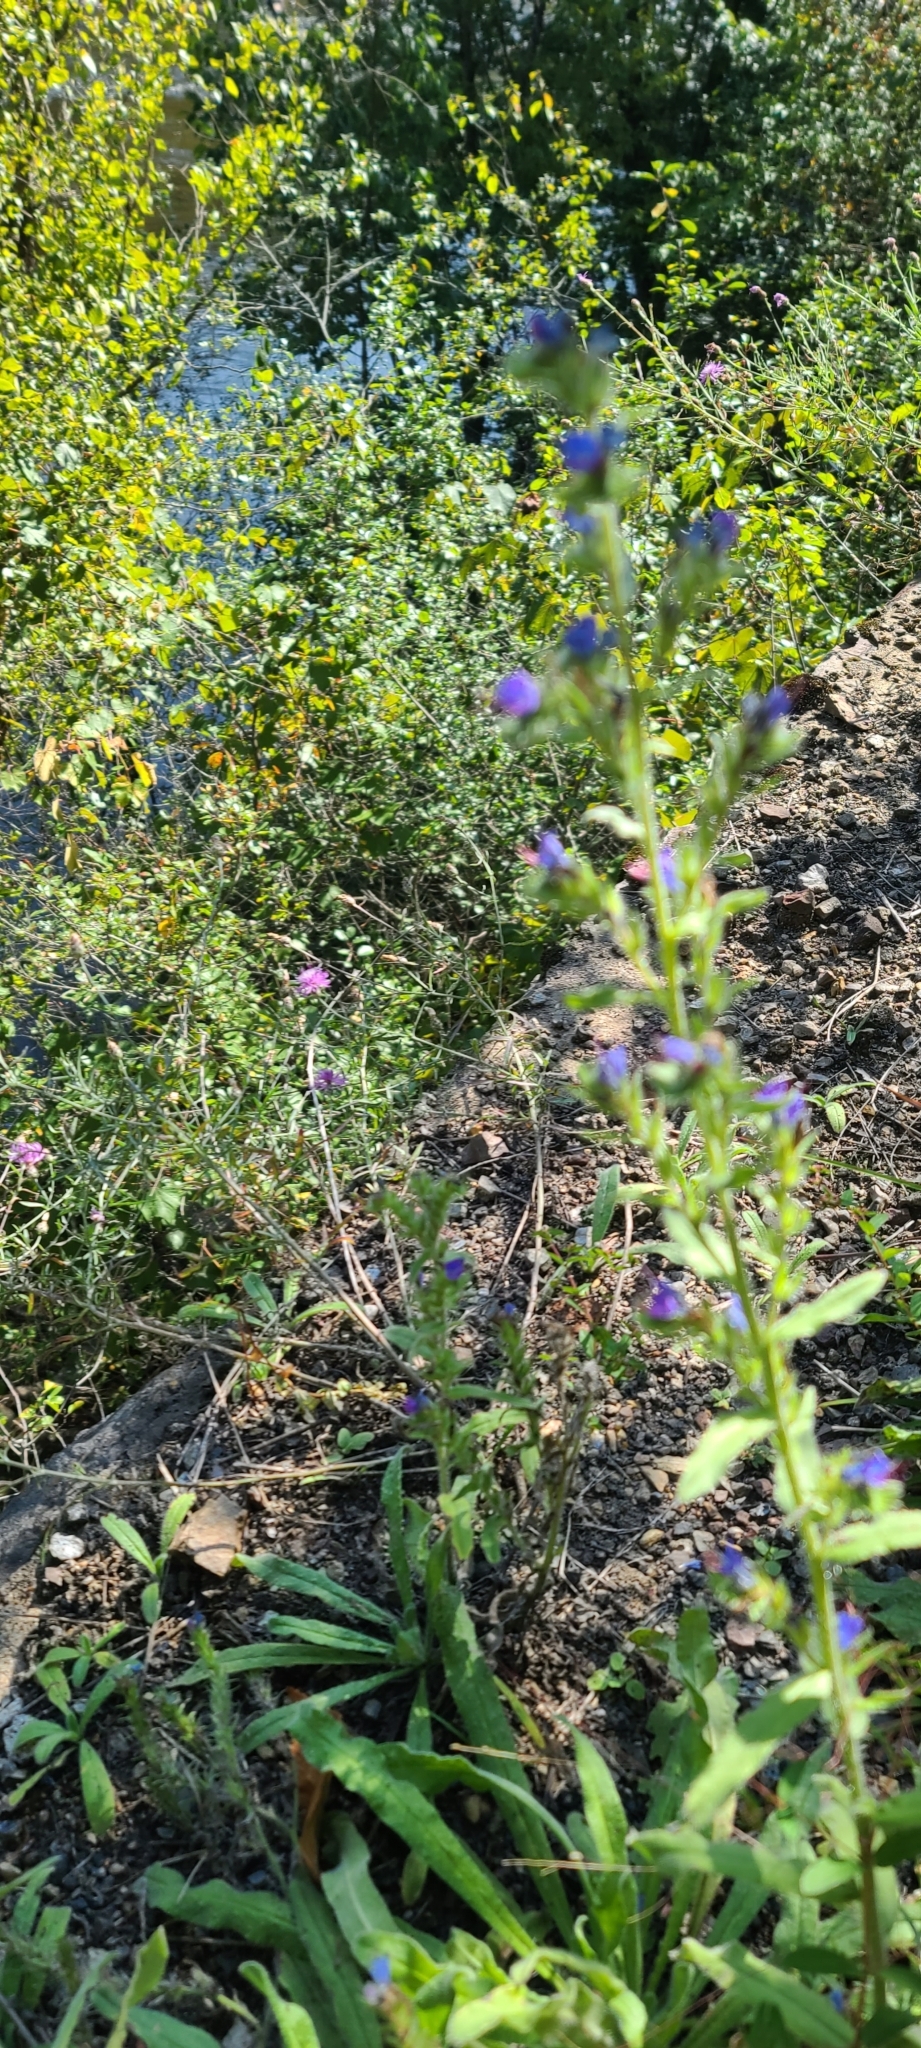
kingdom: Plantae
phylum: Tracheophyta
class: Magnoliopsida
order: Boraginales
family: Boraginaceae
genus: Echium
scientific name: Echium vulgare
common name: Common viper's bugloss
